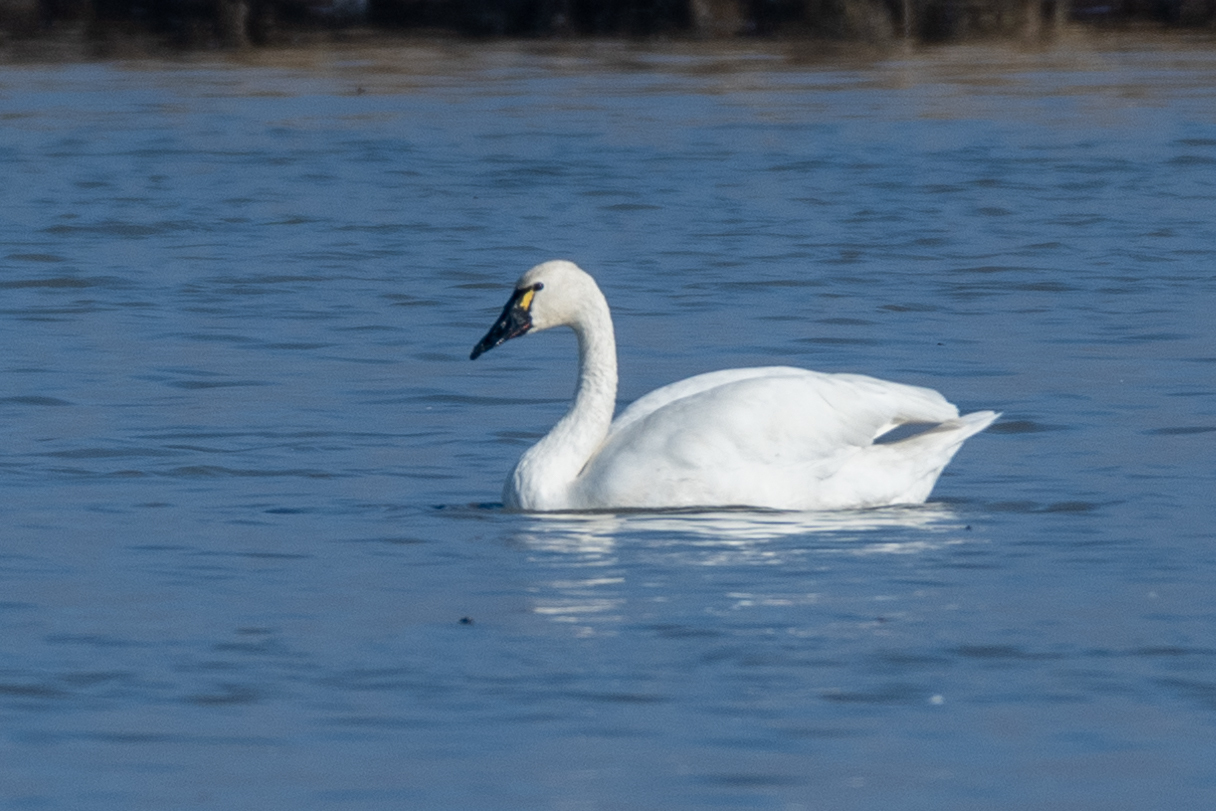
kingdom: Animalia
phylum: Chordata
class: Aves
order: Anseriformes
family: Anatidae
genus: Cygnus
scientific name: Cygnus columbianus
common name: Tundra swan
